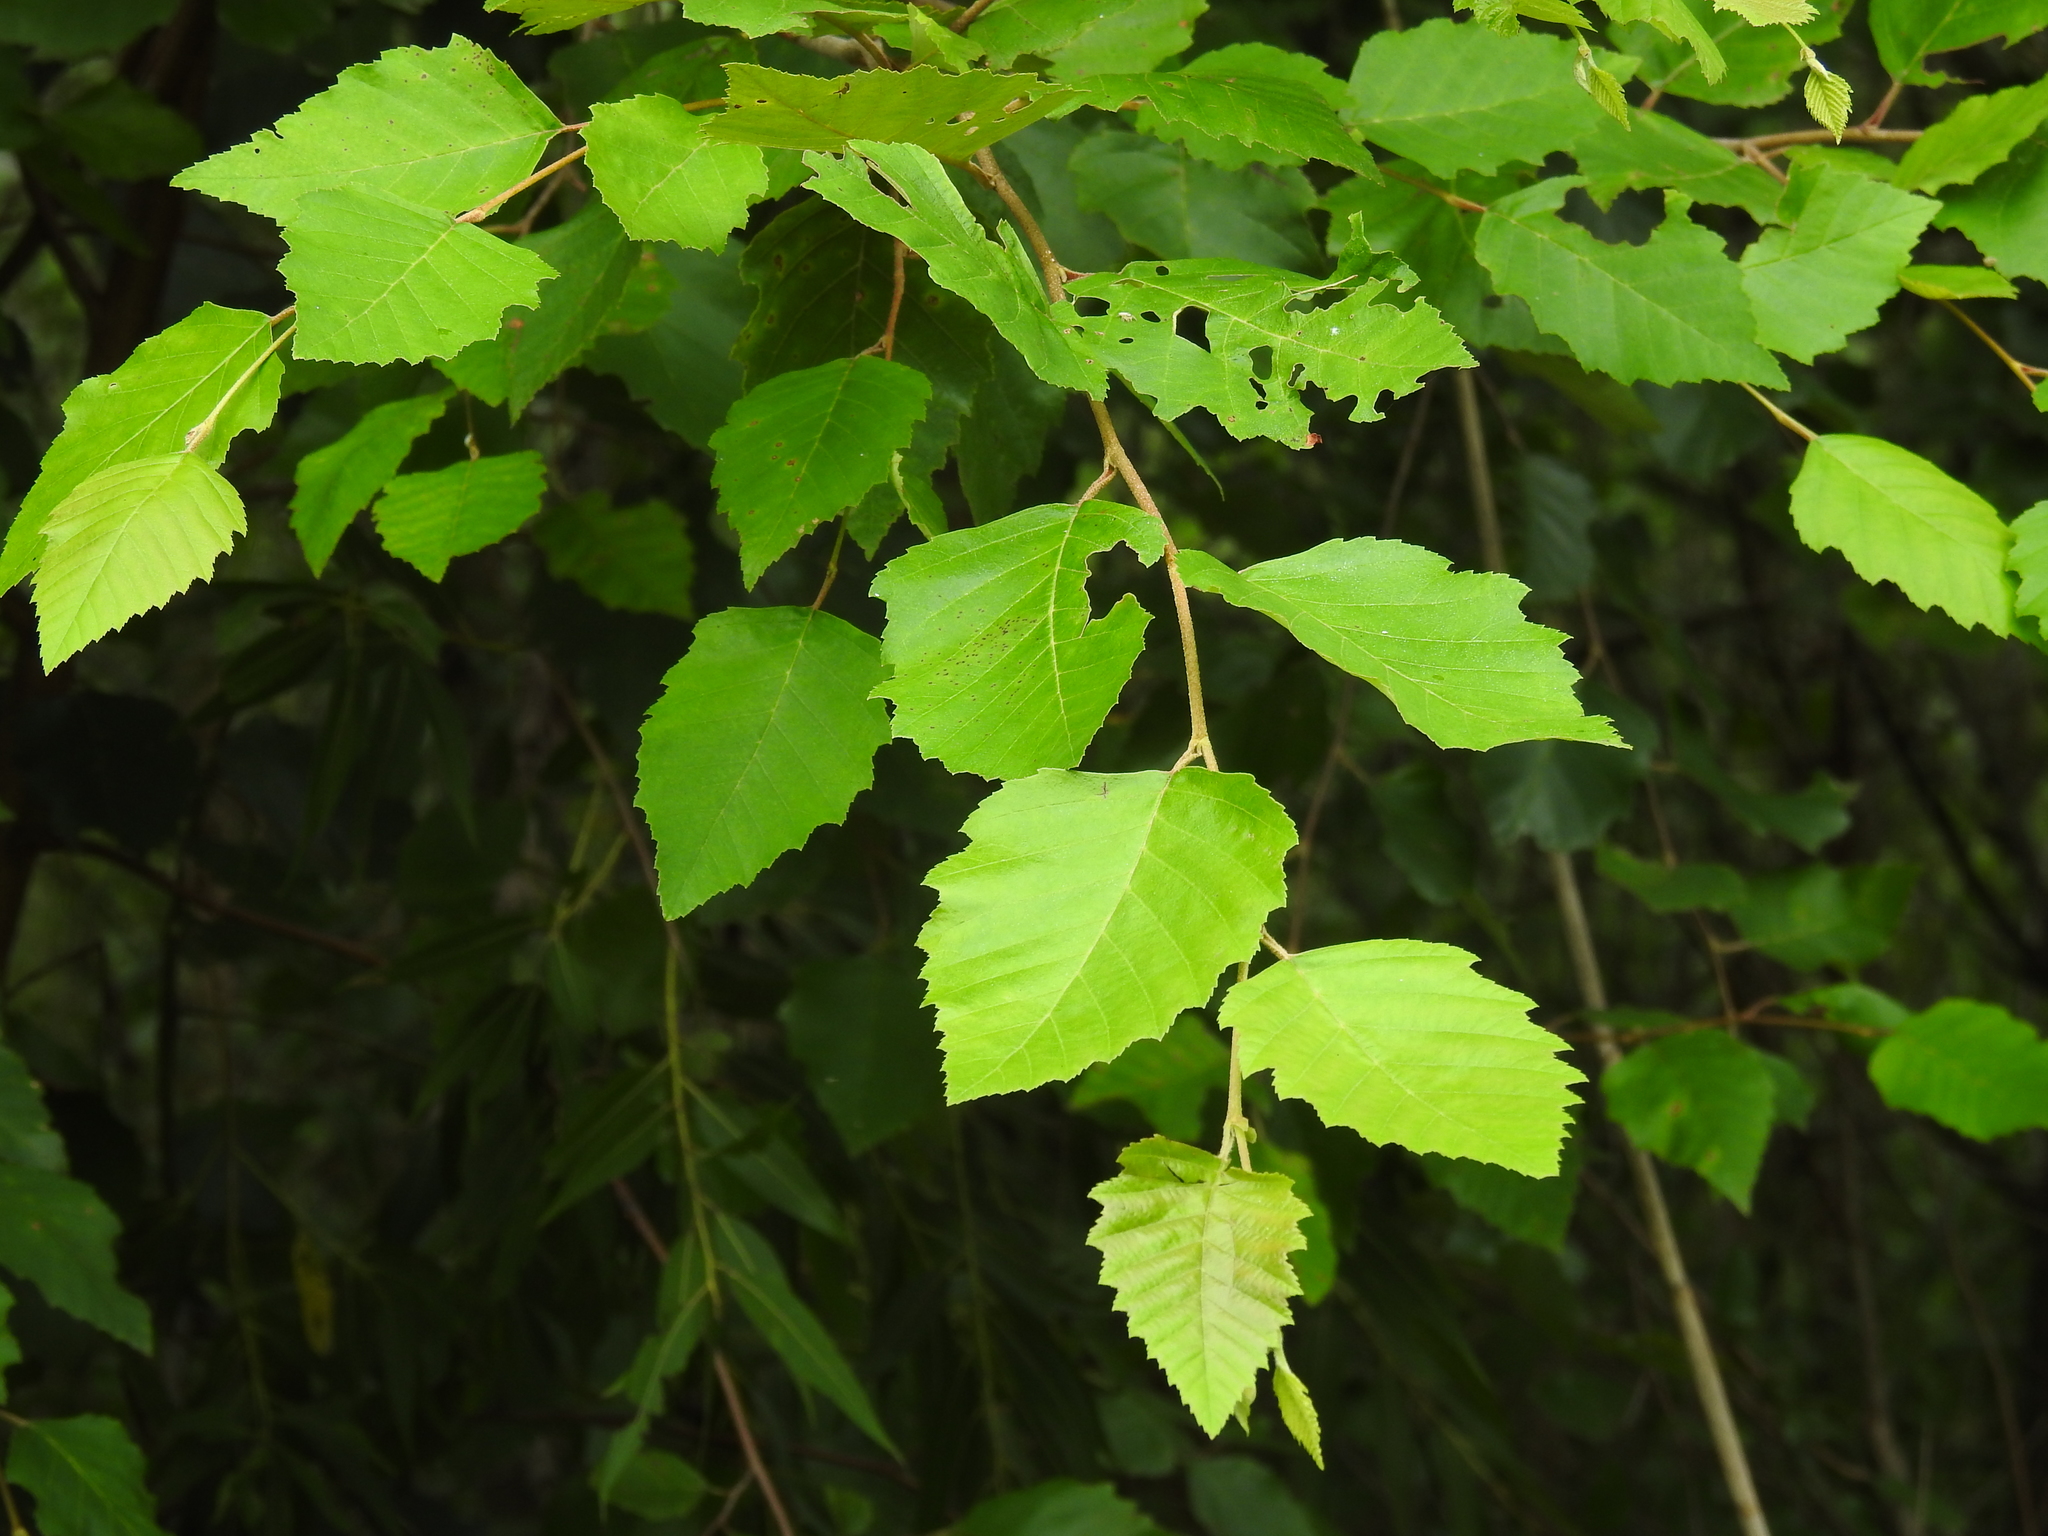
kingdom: Plantae
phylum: Tracheophyta
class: Magnoliopsida
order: Fagales
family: Betulaceae
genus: Betula
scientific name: Betula nigra
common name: Black birch
